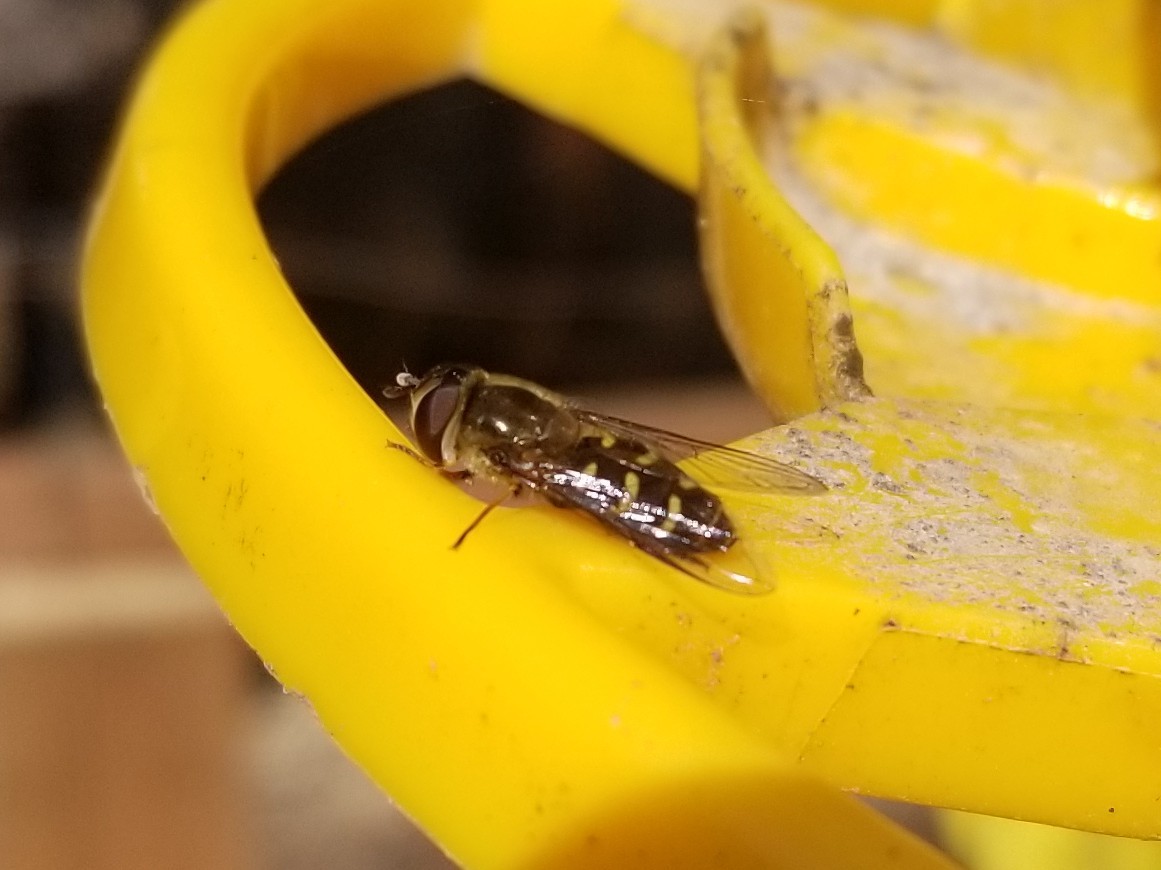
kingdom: Animalia
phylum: Arthropoda
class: Insecta
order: Diptera
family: Syrphidae
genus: Lapposyrphus
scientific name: Lapposyrphus lapponicus
